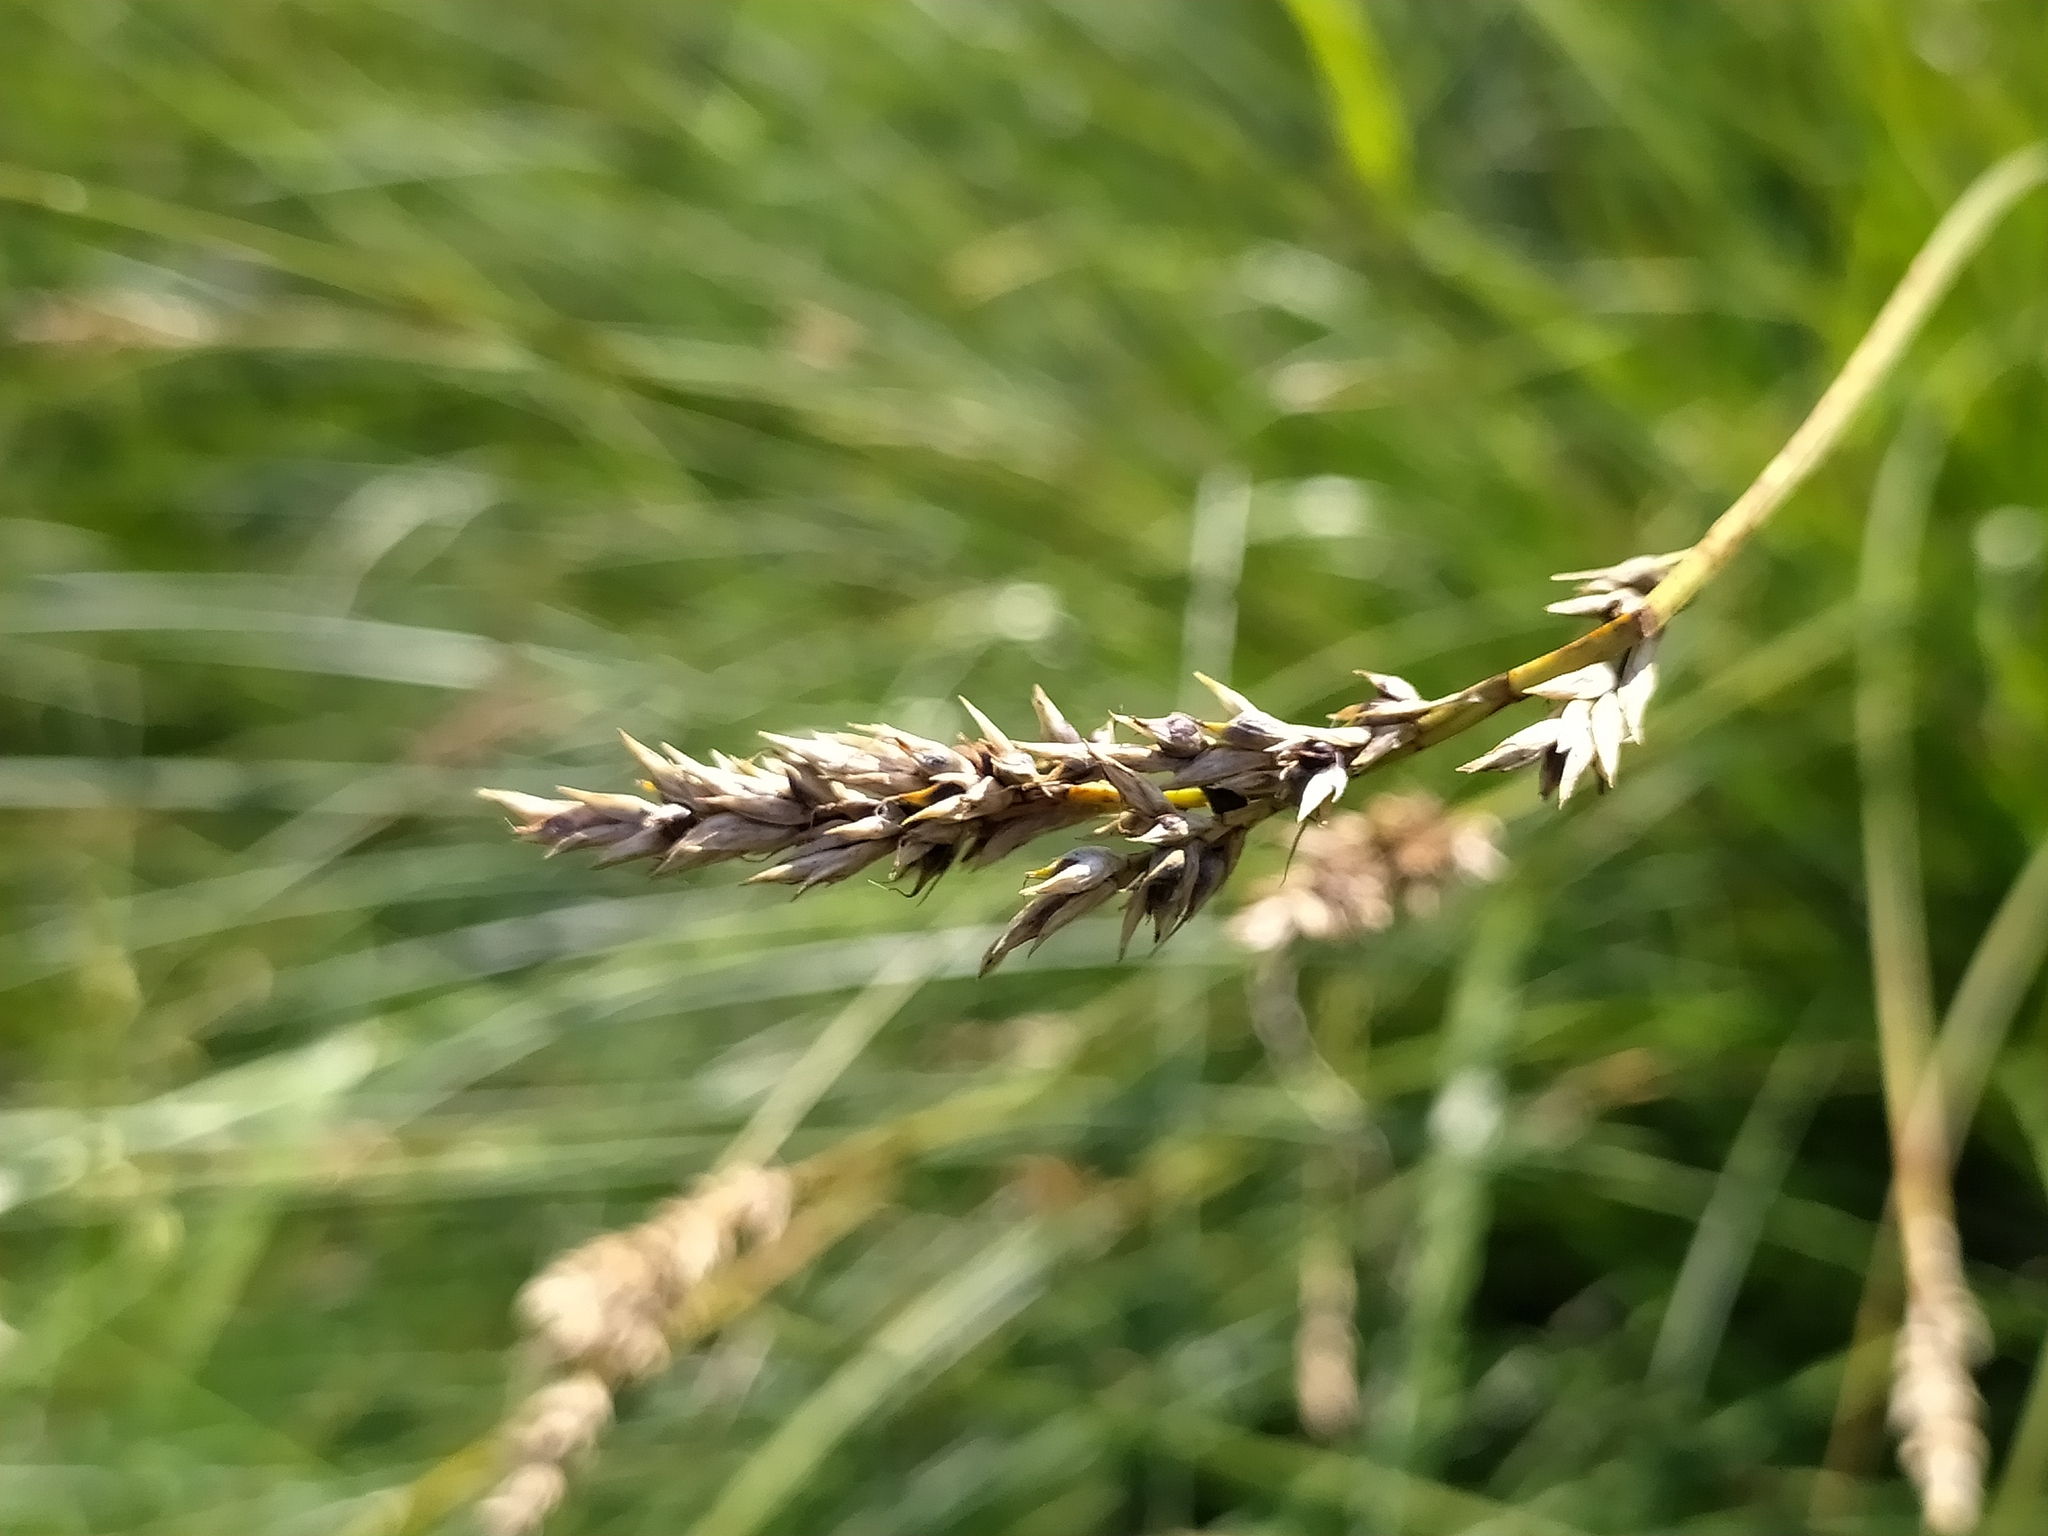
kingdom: Plantae
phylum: Tracheophyta
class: Liliopsida
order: Poales
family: Cyperaceae
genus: Carex
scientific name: Carex appropinquata
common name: Fibrous tussock-sedge
